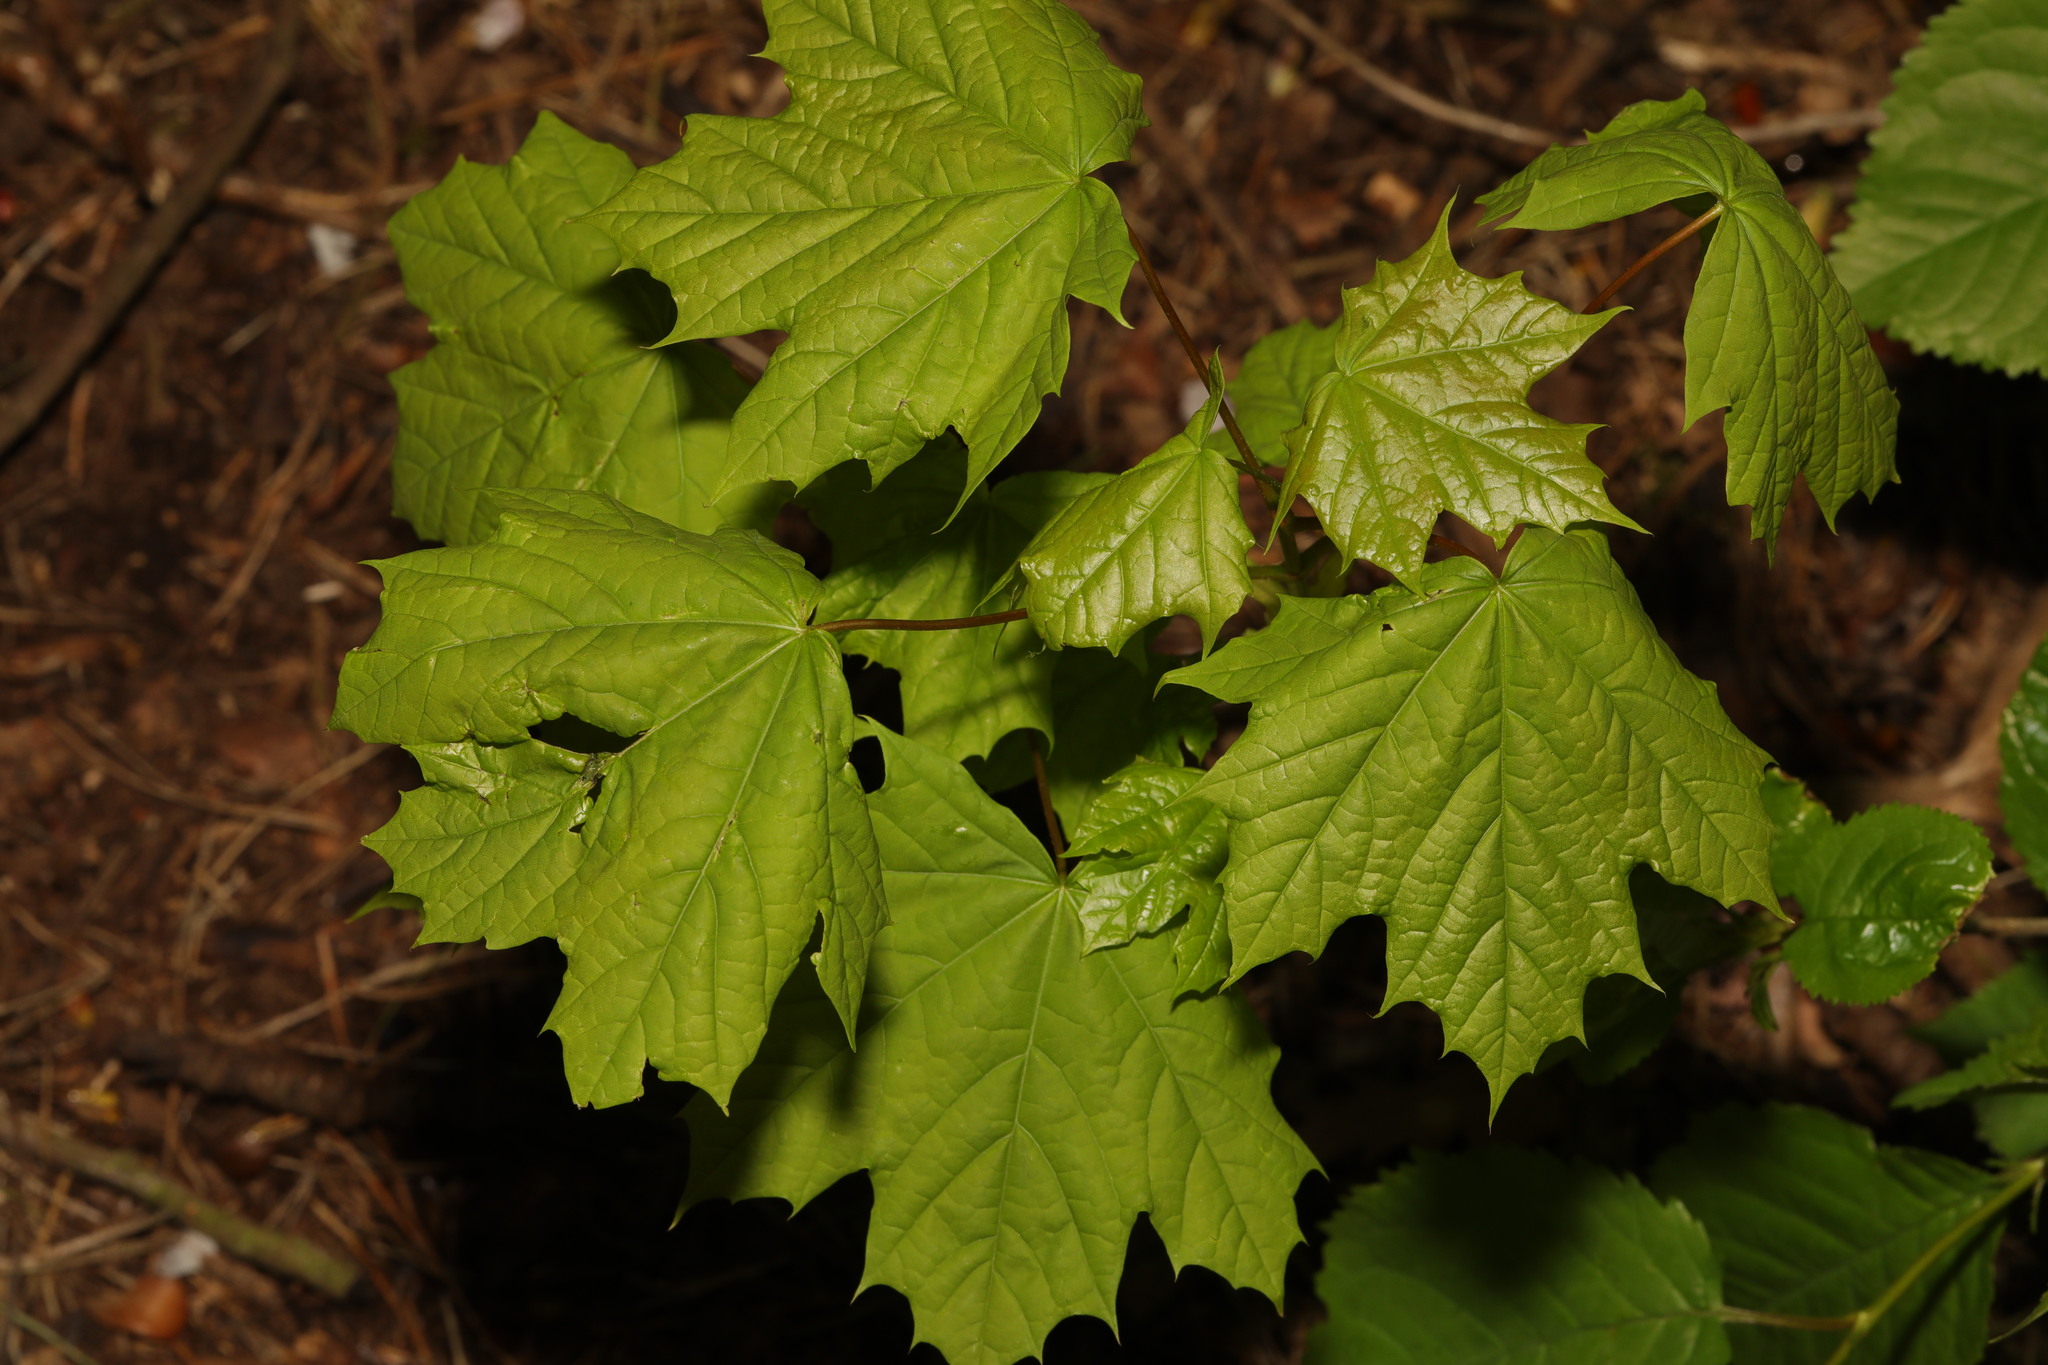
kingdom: Plantae
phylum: Tracheophyta
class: Magnoliopsida
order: Sapindales
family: Sapindaceae
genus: Acer
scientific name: Acer platanoides
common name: Norway maple
